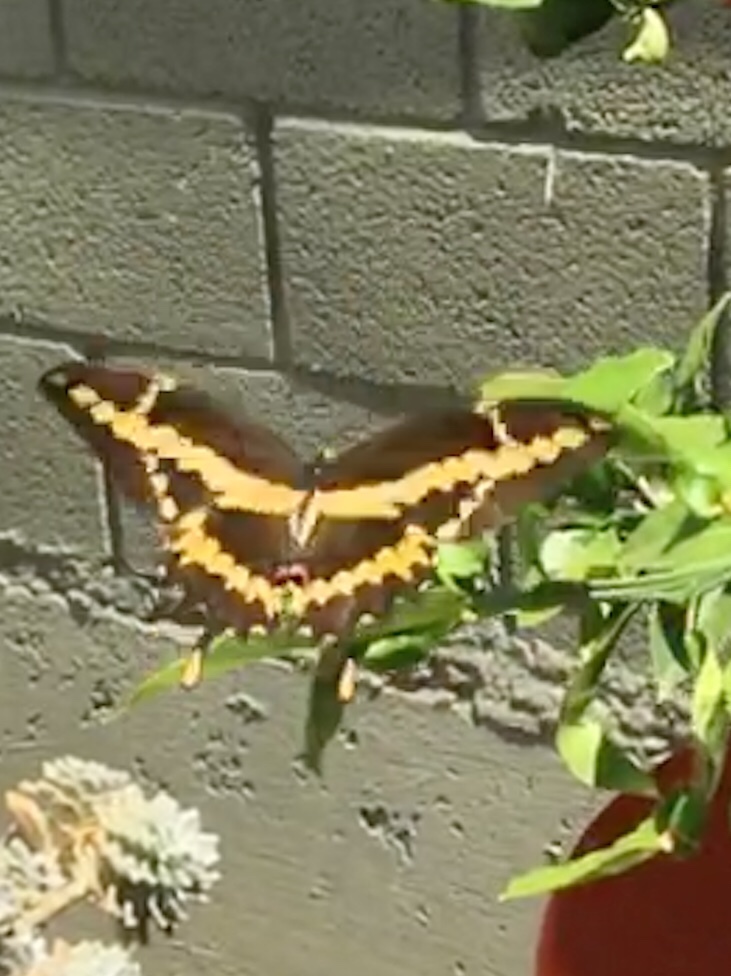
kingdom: Animalia
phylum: Arthropoda
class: Insecta
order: Lepidoptera
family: Papilionidae
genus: Papilio
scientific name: Papilio rumiko
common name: Western giant swallowtail
